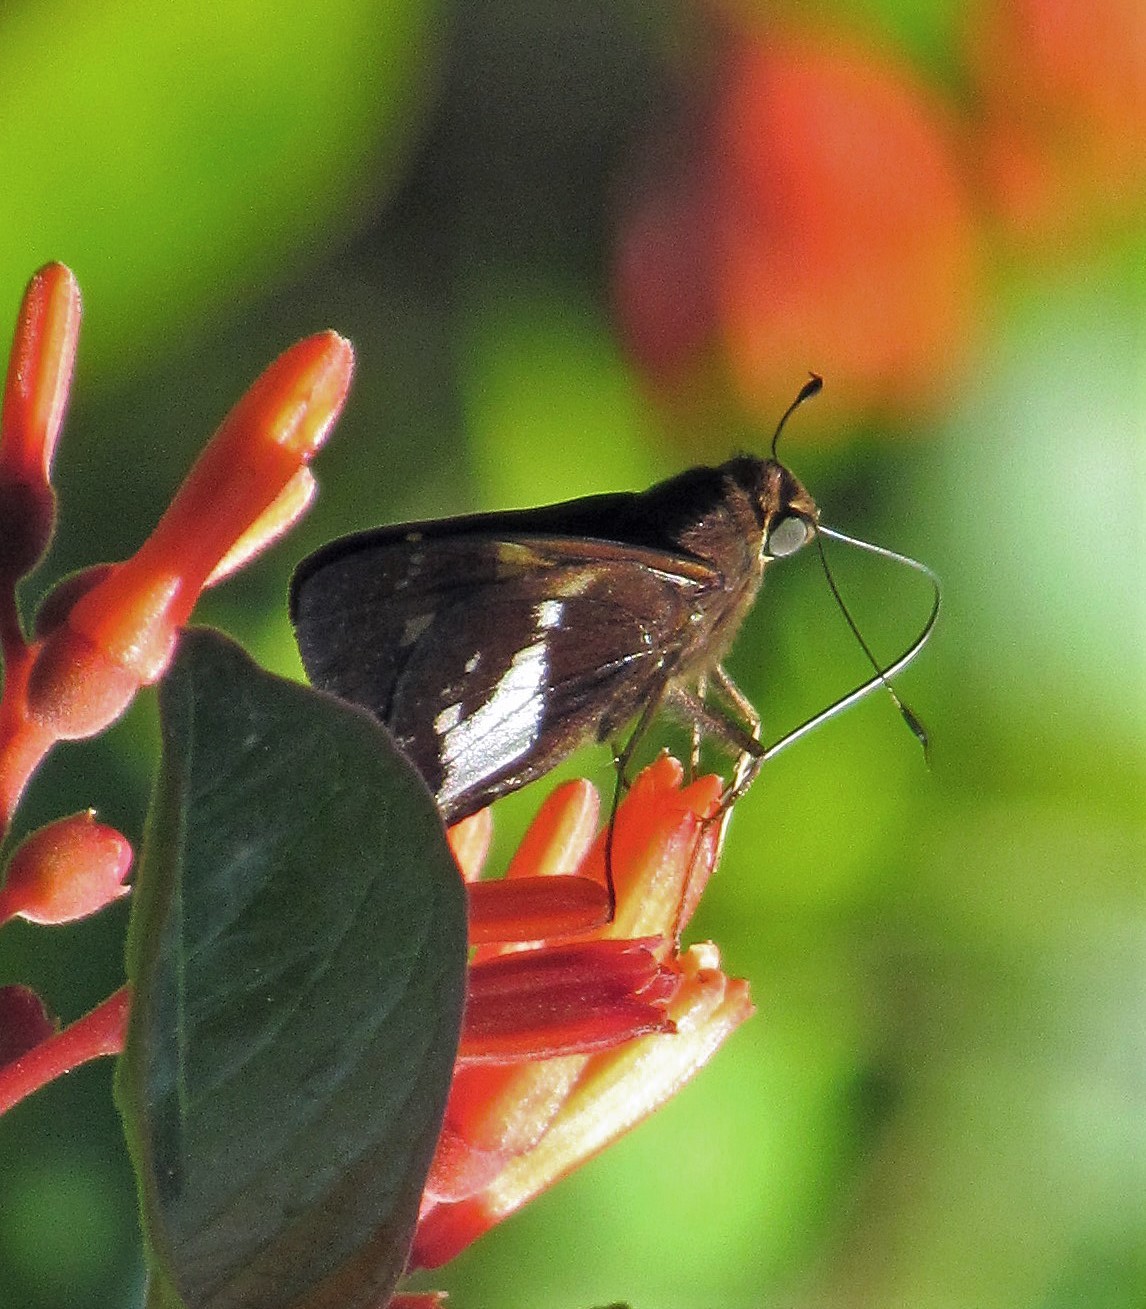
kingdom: Animalia
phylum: Arthropoda
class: Insecta
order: Lepidoptera
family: Hesperiidae
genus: Xeniades
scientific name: Xeniades orchamus
